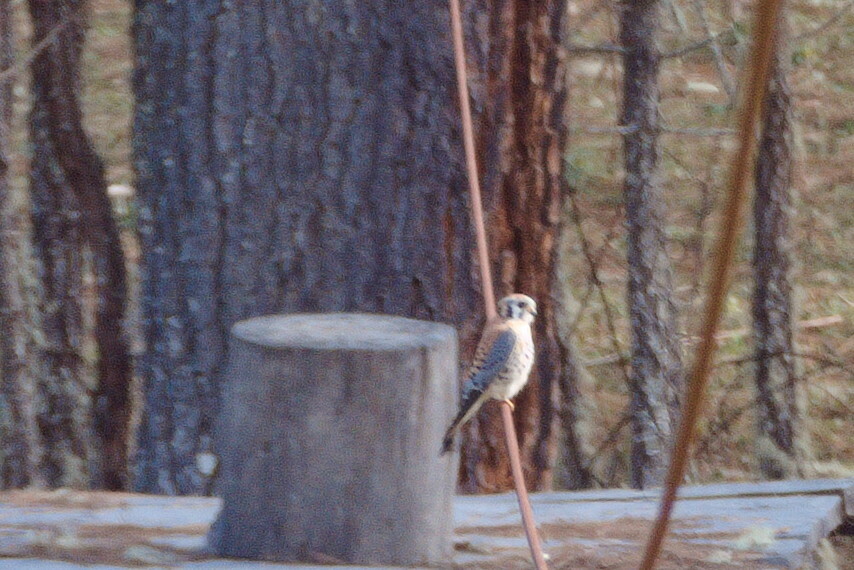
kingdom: Animalia
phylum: Chordata
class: Aves
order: Falconiformes
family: Falconidae
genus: Falco
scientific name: Falco sparverius
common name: American kestrel
